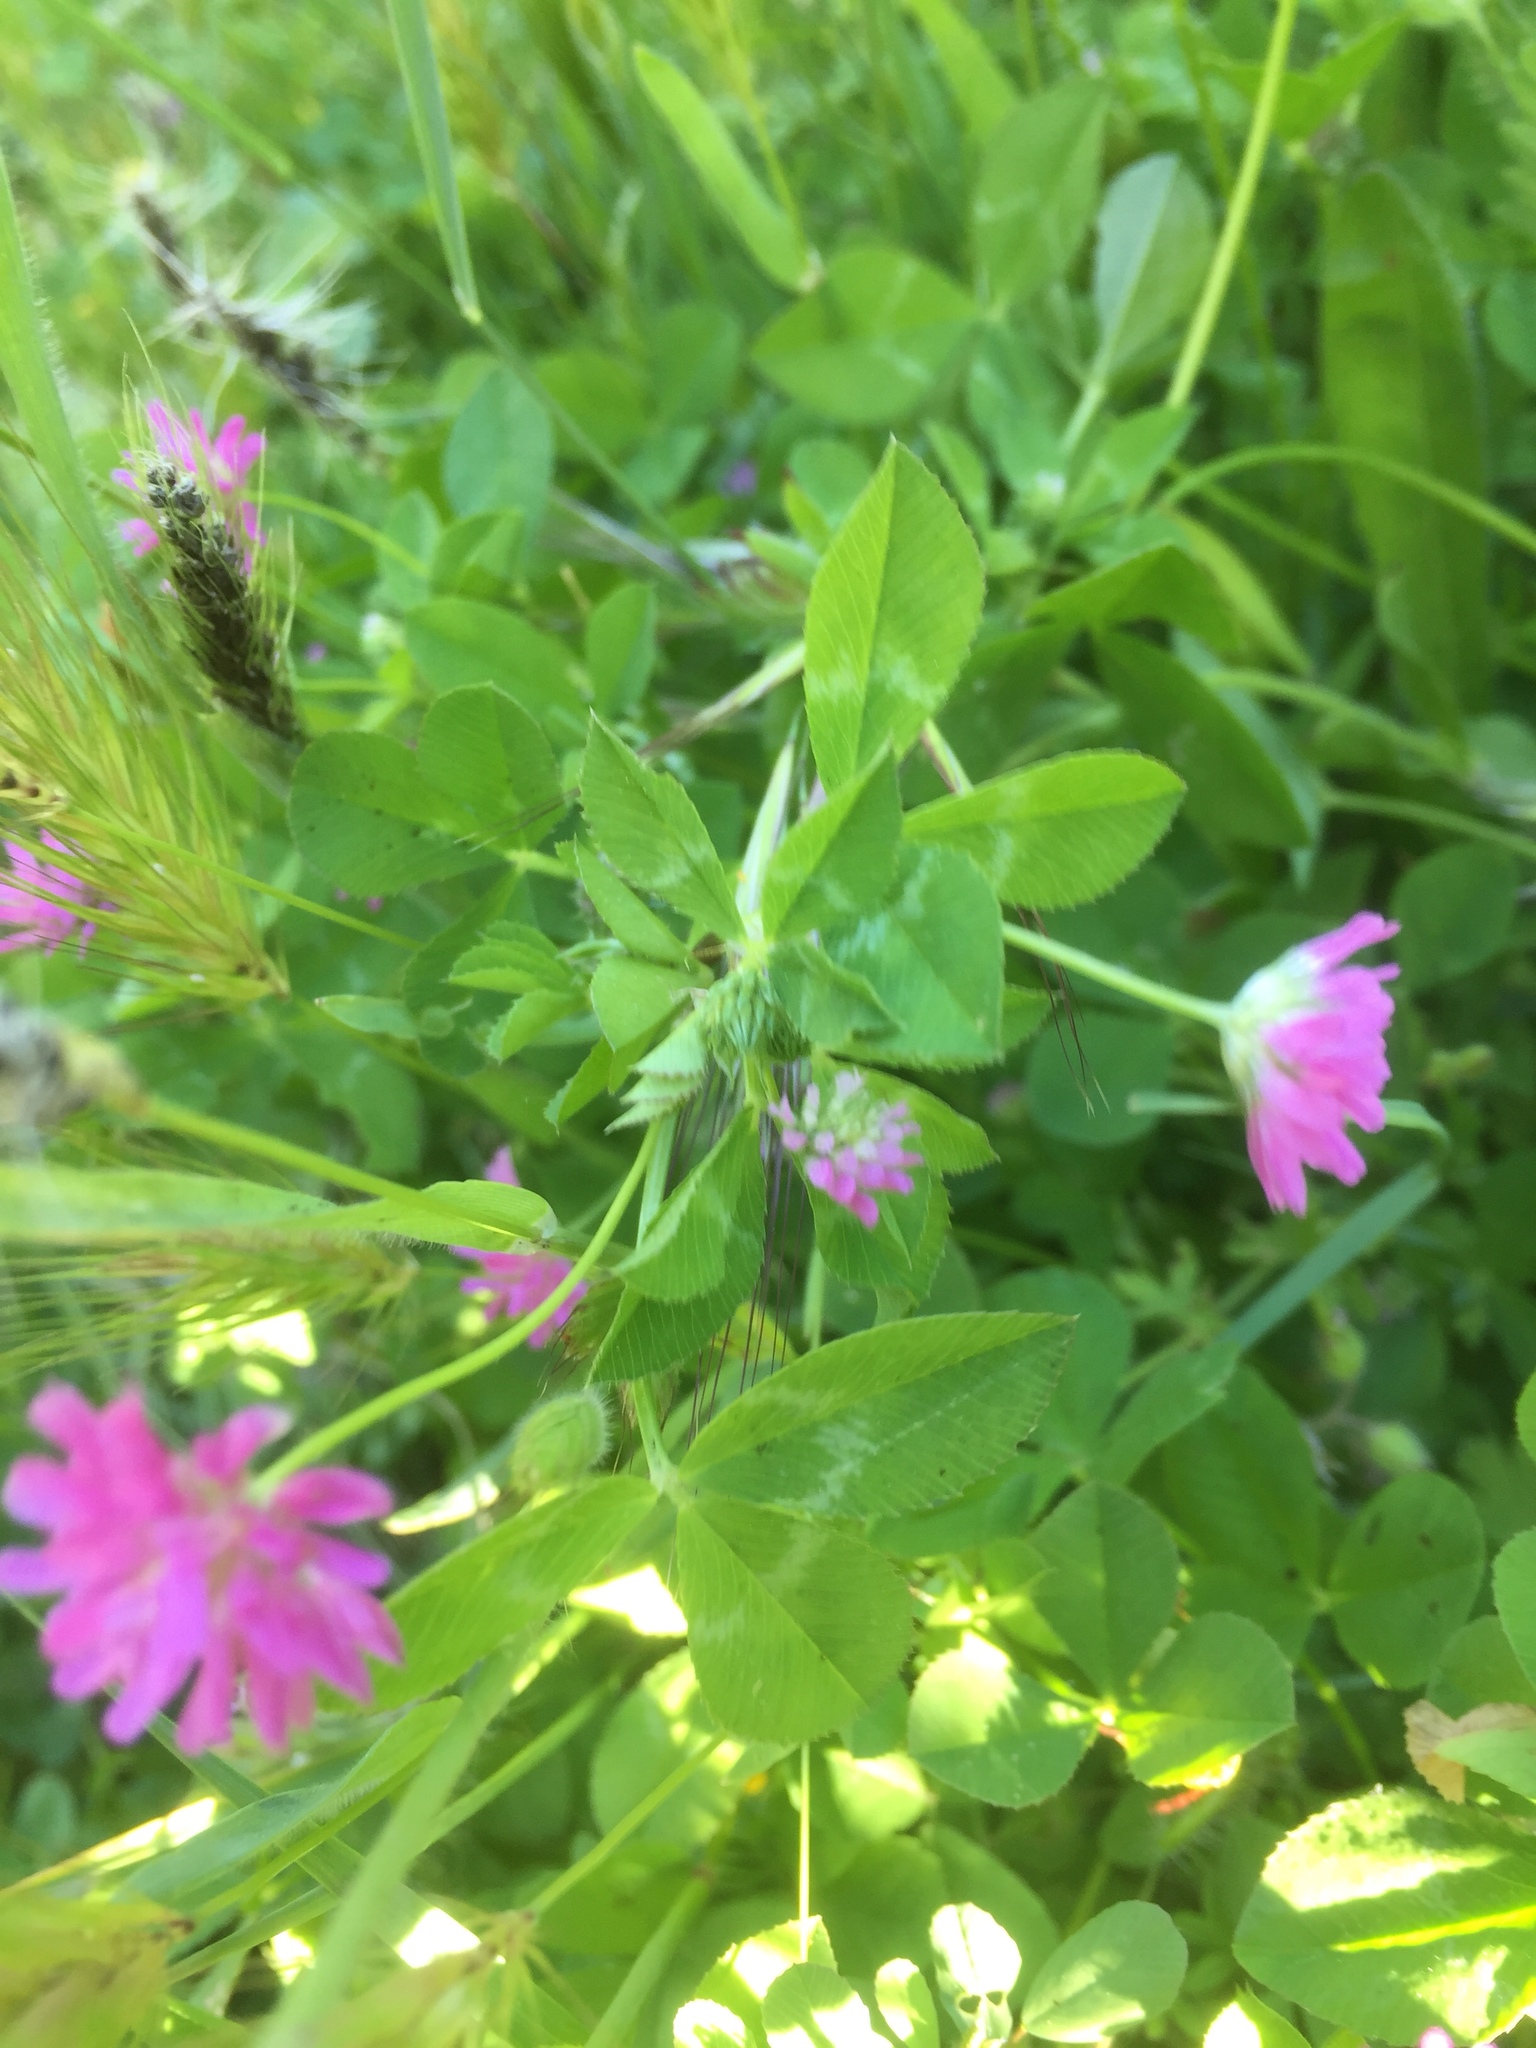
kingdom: Plantae
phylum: Tracheophyta
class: Magnoliopsida
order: Fabales
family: Fabaceae
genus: Trifolium
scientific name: Trifolium resupinatum
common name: Reversed clover
